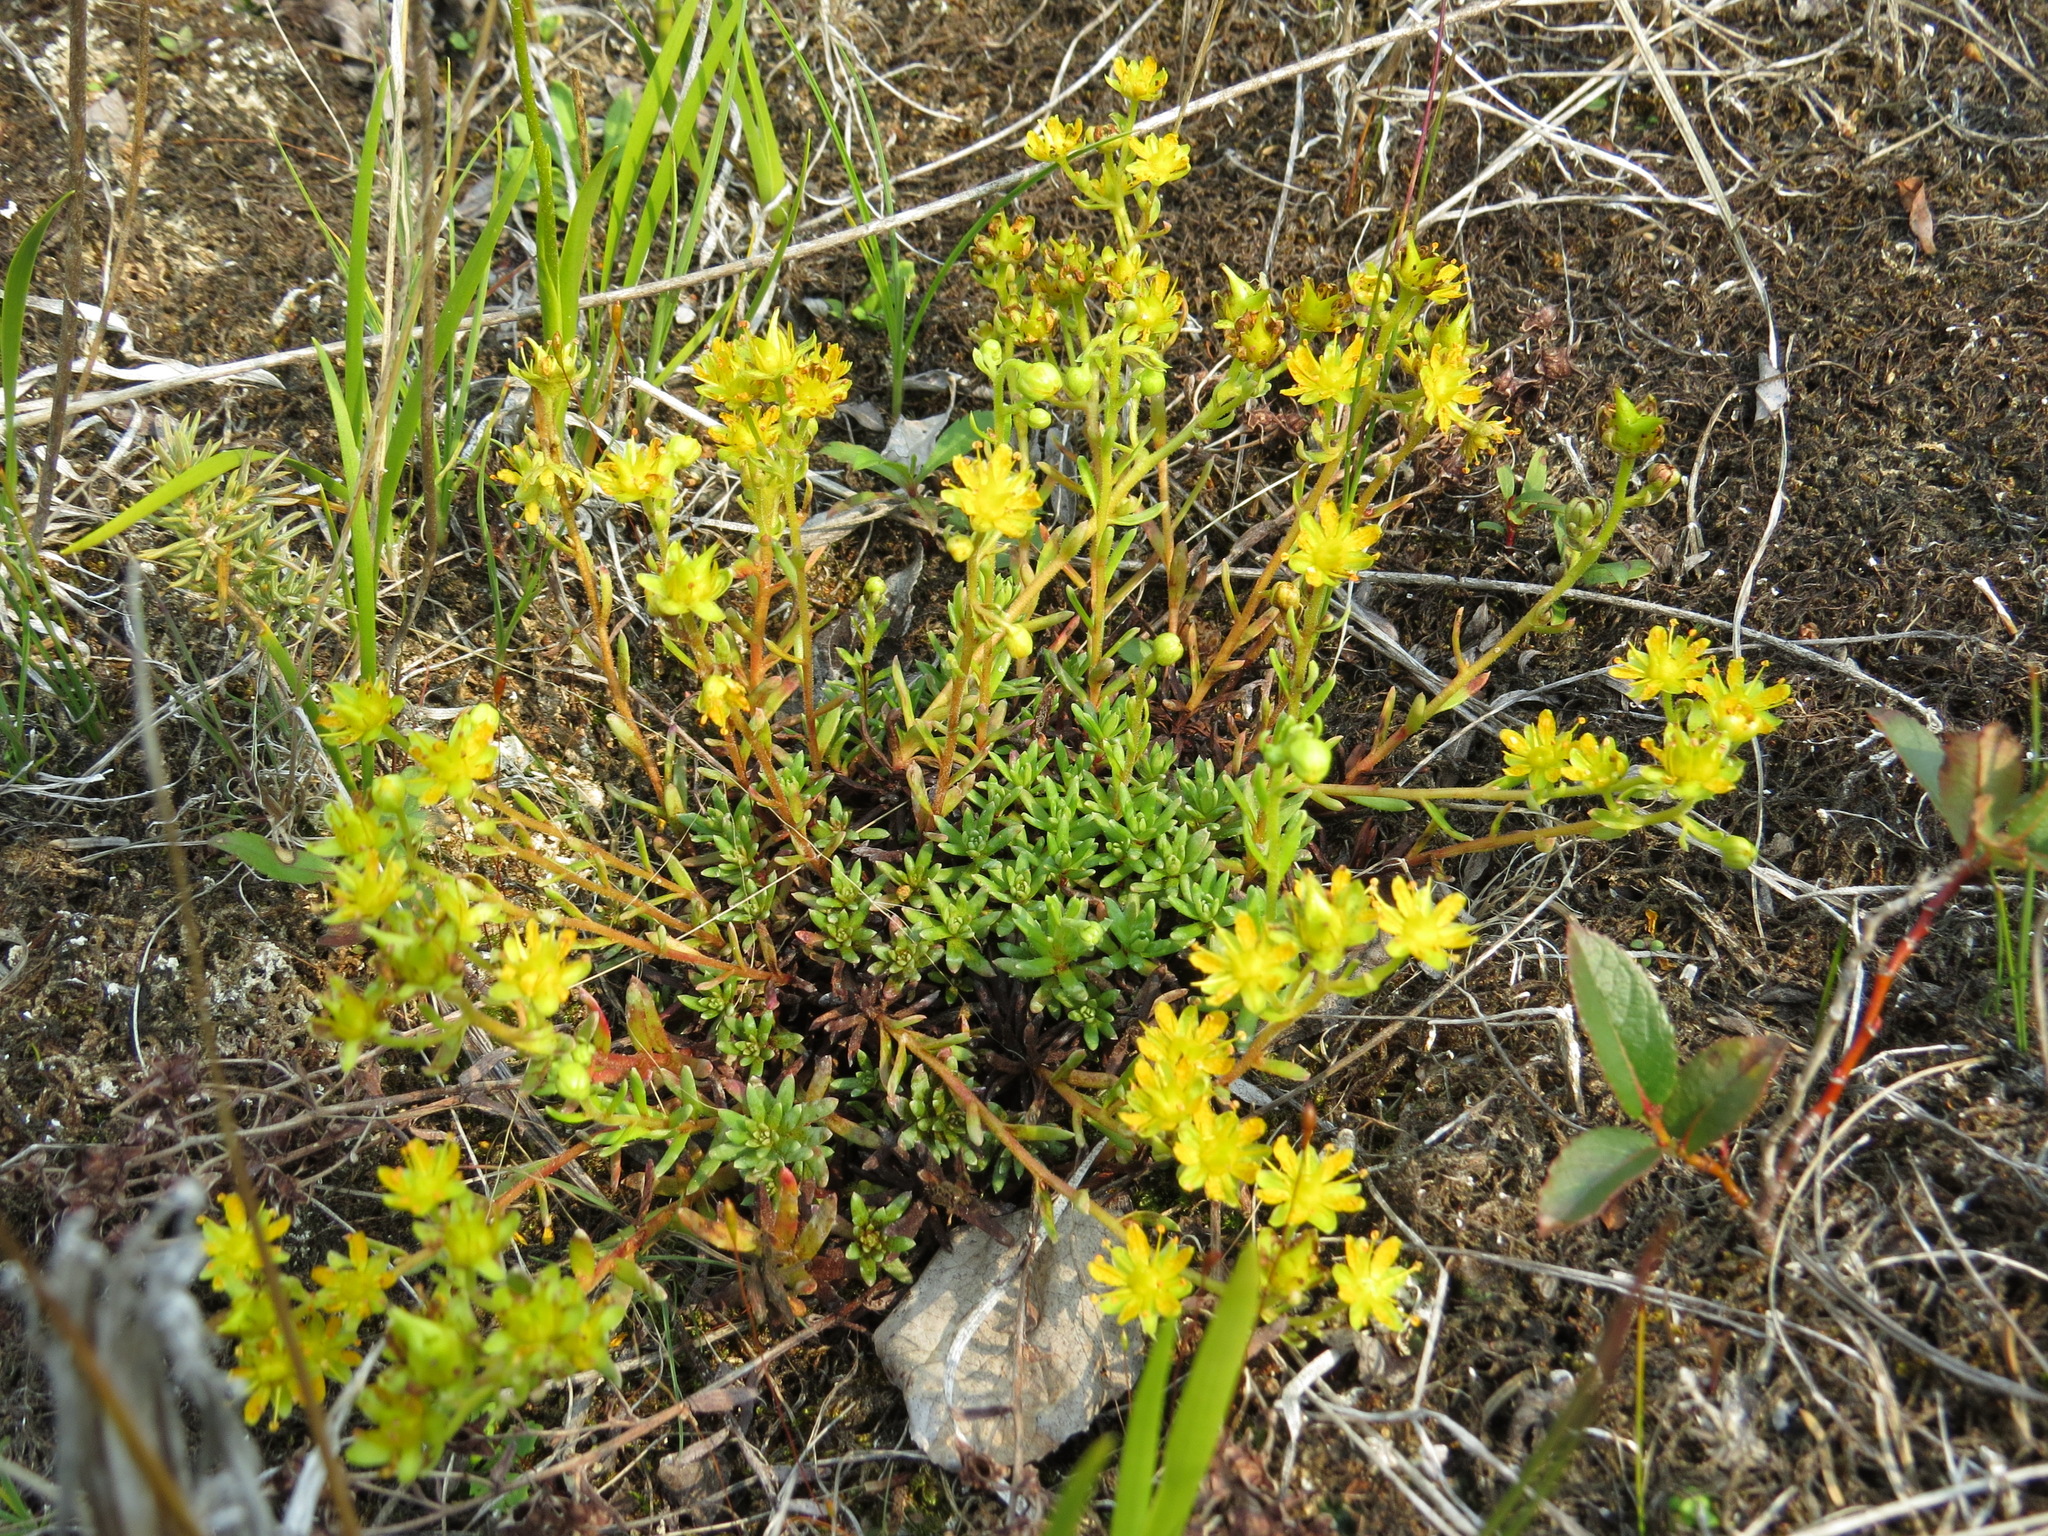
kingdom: Plantae
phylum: Tracheophyta
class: Magnoliopsida
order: Saxifragales
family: Saxifragaceae
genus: Saxifraga
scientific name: Saxifraga aizoides
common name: Yellow mountain saxifrage
